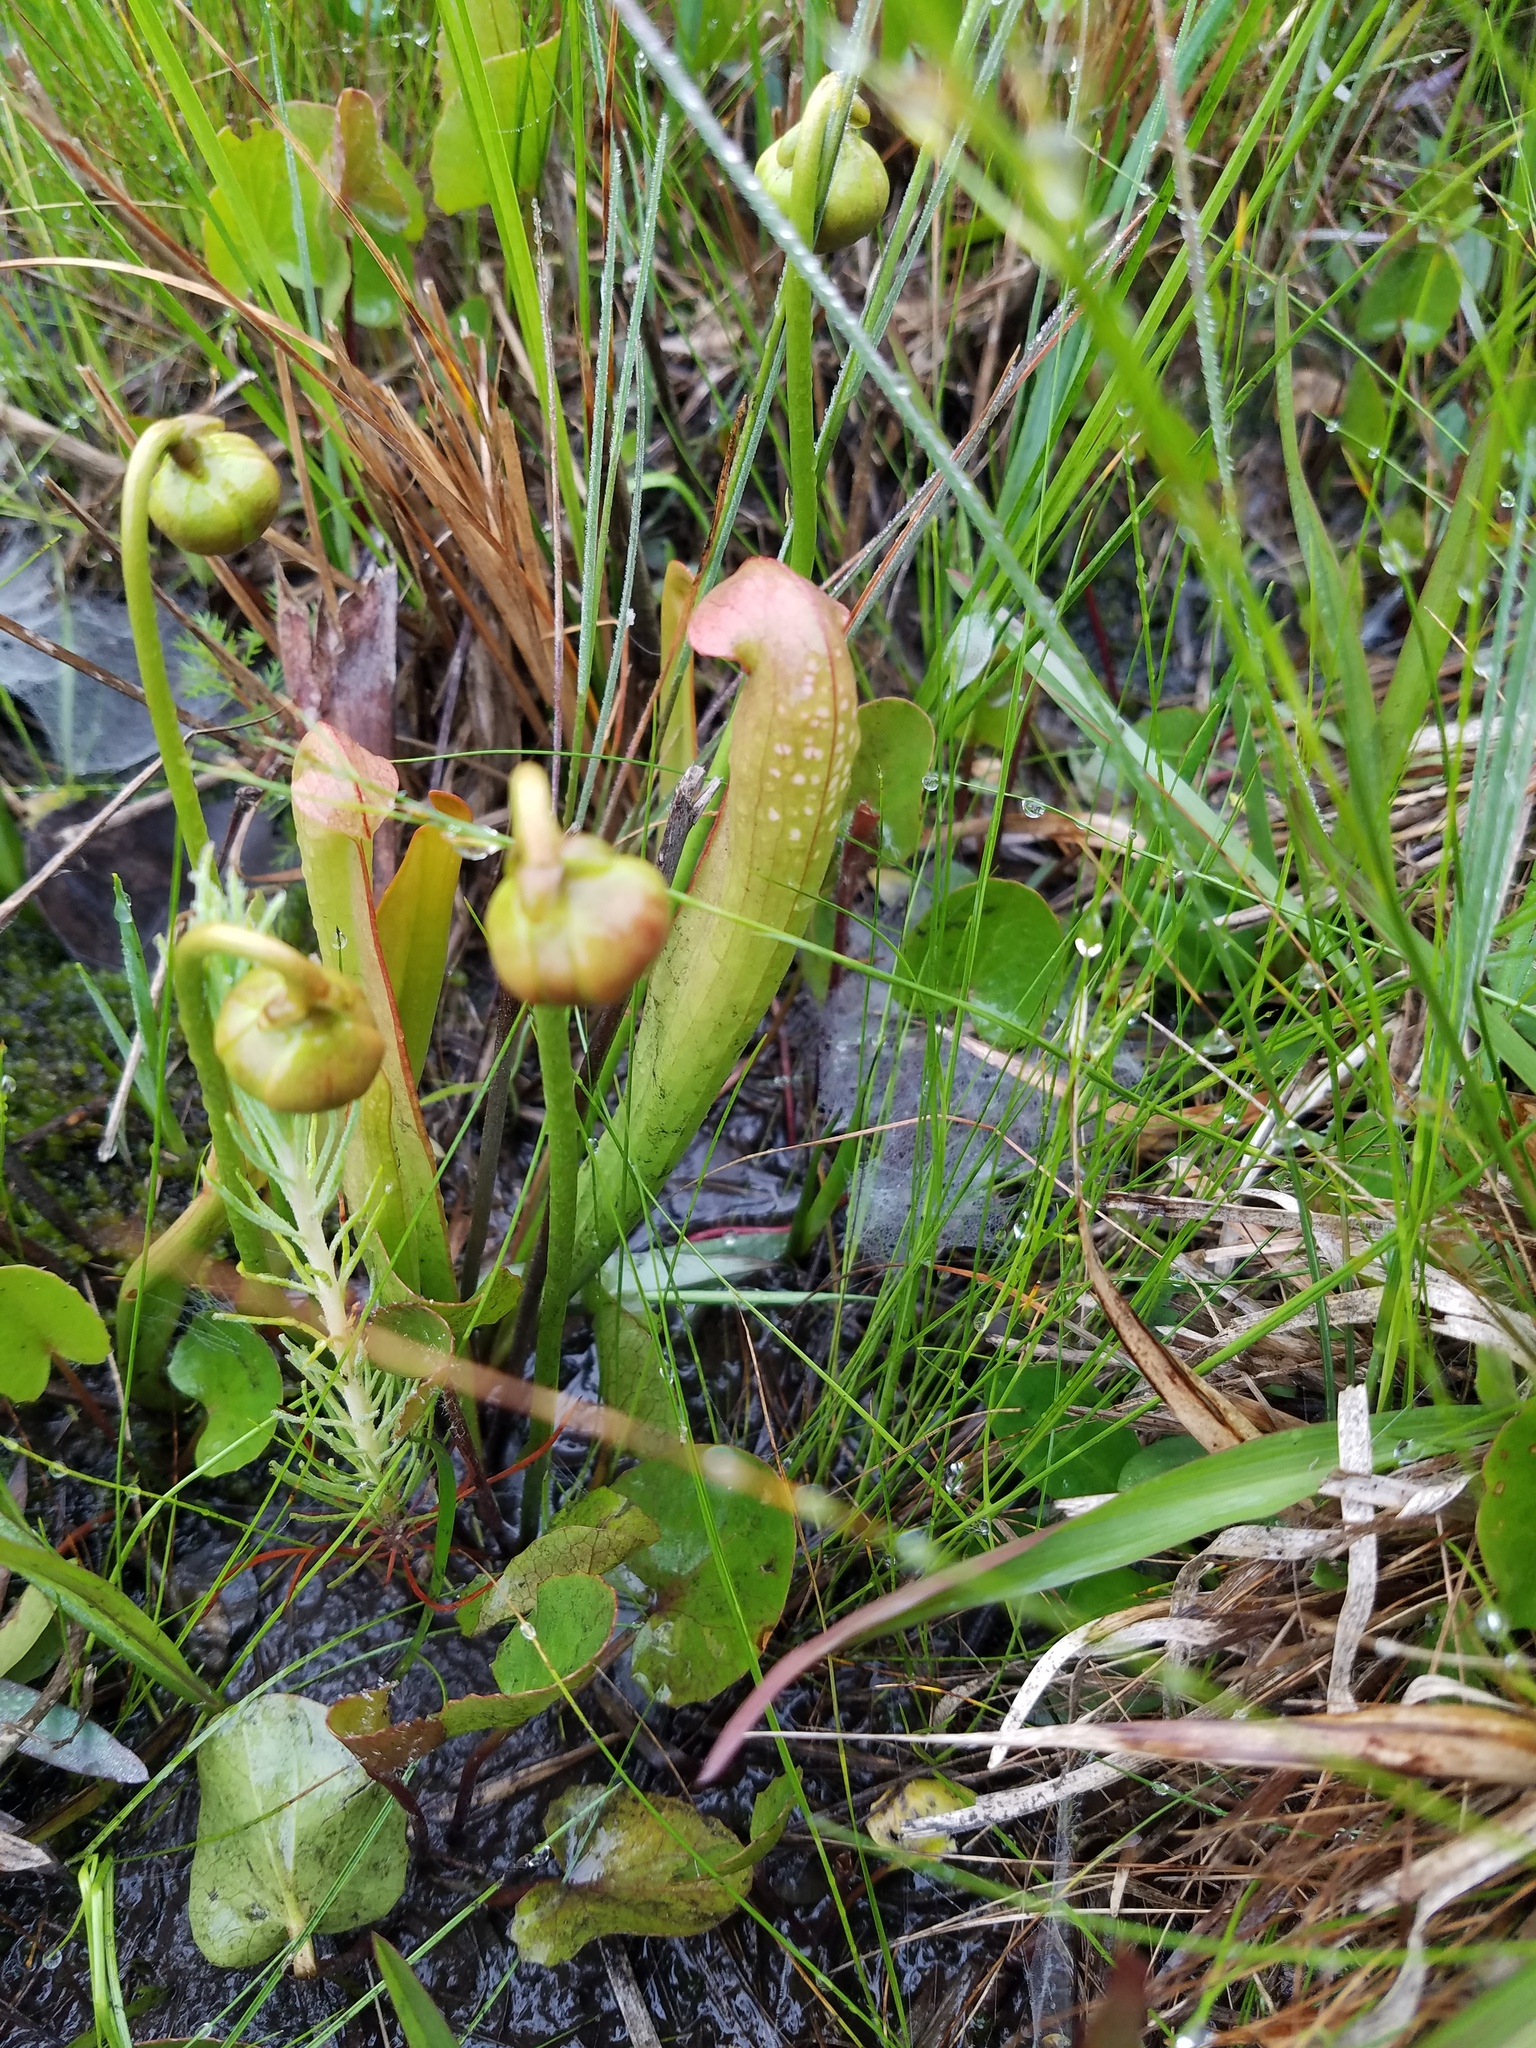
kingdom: Plantae
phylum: Tracheophyta
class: Magnoliopsida
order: Ericales
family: Sarraceniaceae
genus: Sarracenia
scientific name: Sarracenia minor
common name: Rainhat-trumpet
